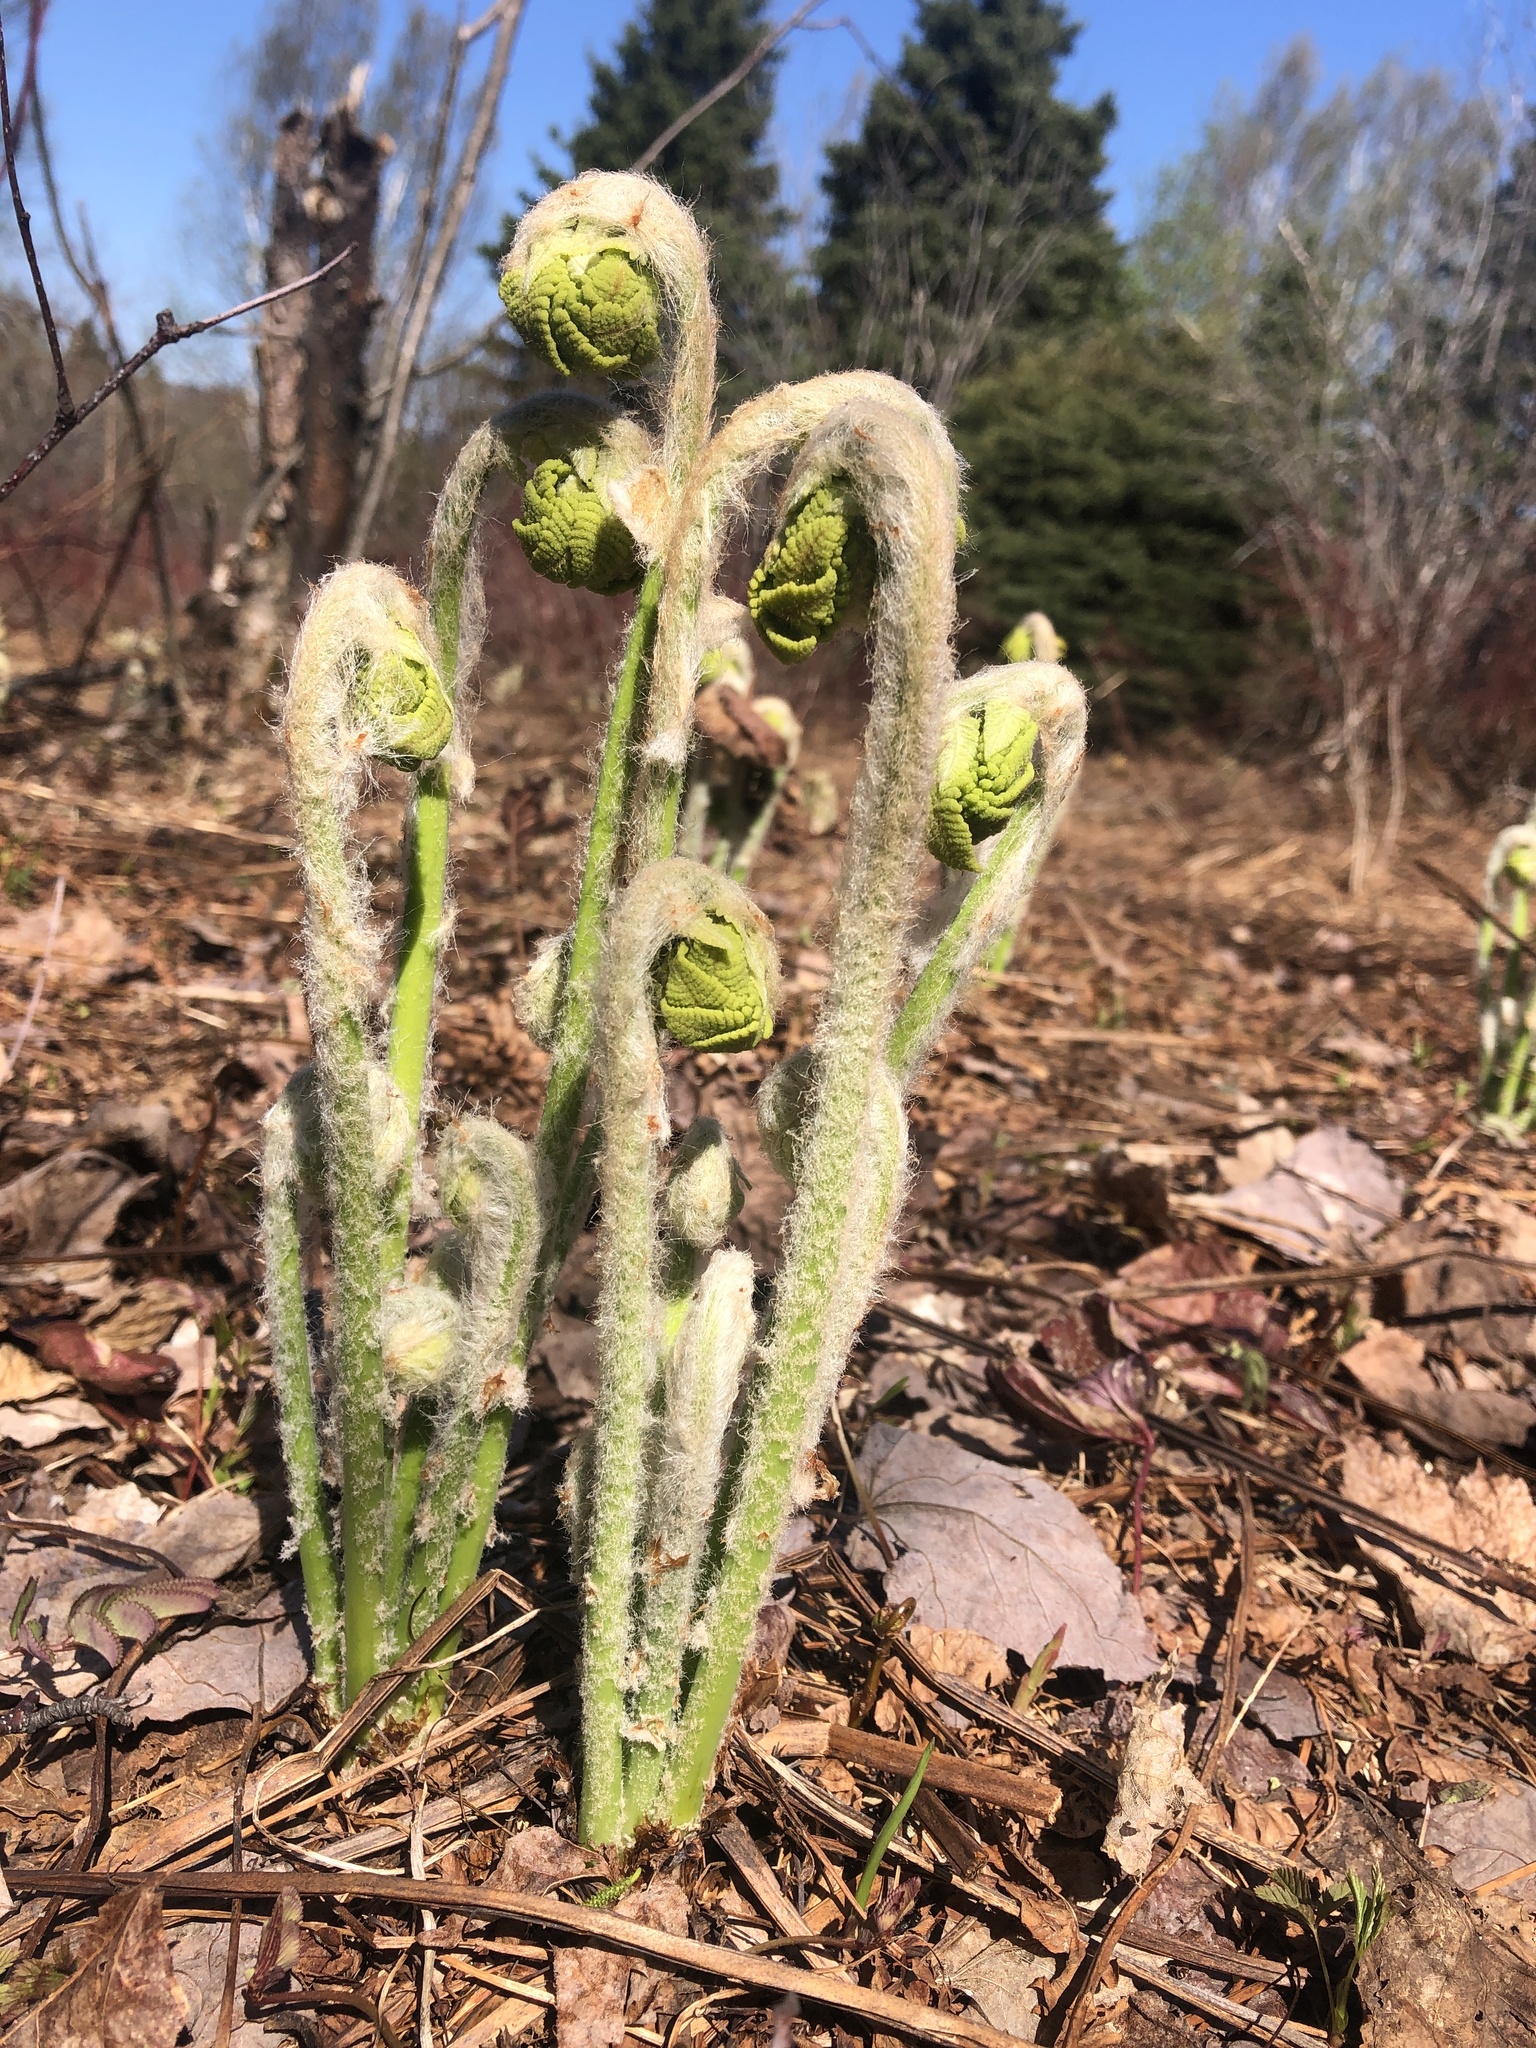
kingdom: Plantae
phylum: Tracheophyta
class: Polypodiopsida
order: Osmundales
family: Osmundaceae
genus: Claytosmunda
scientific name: Claytosmunda claytoniana
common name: Clayton's fern
